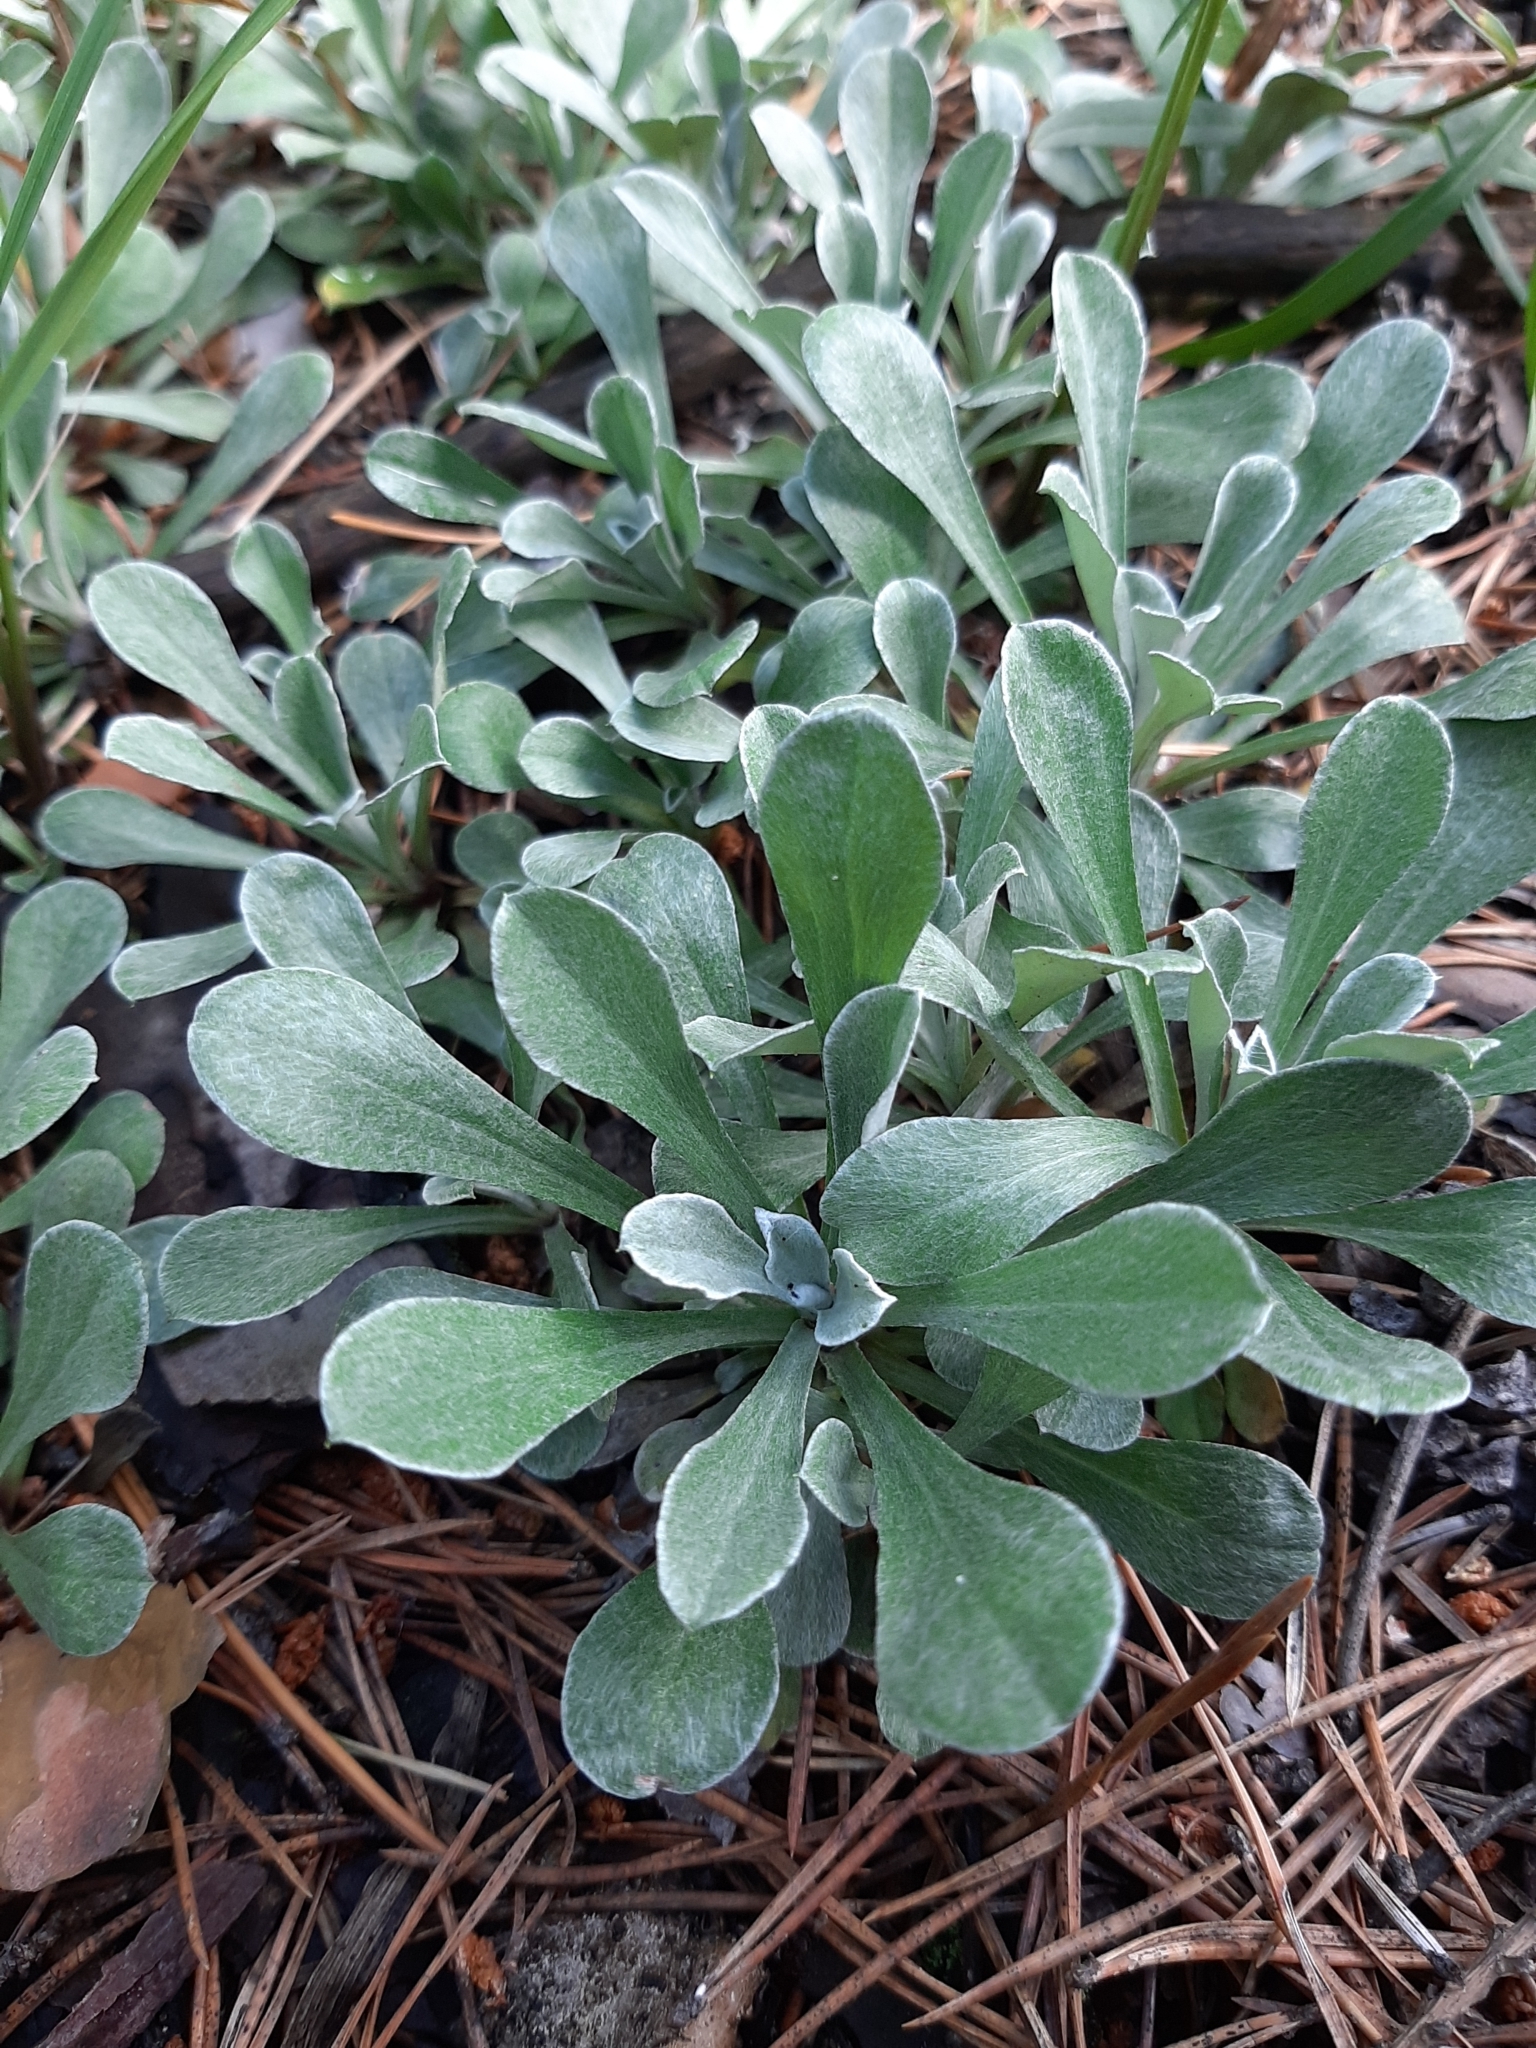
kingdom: Plantae
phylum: Tracheophyta
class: Magnoliopsida
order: Asterales
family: Asteraceae
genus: Antennaria
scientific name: Antennaria dioica
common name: Mountain everlasting
